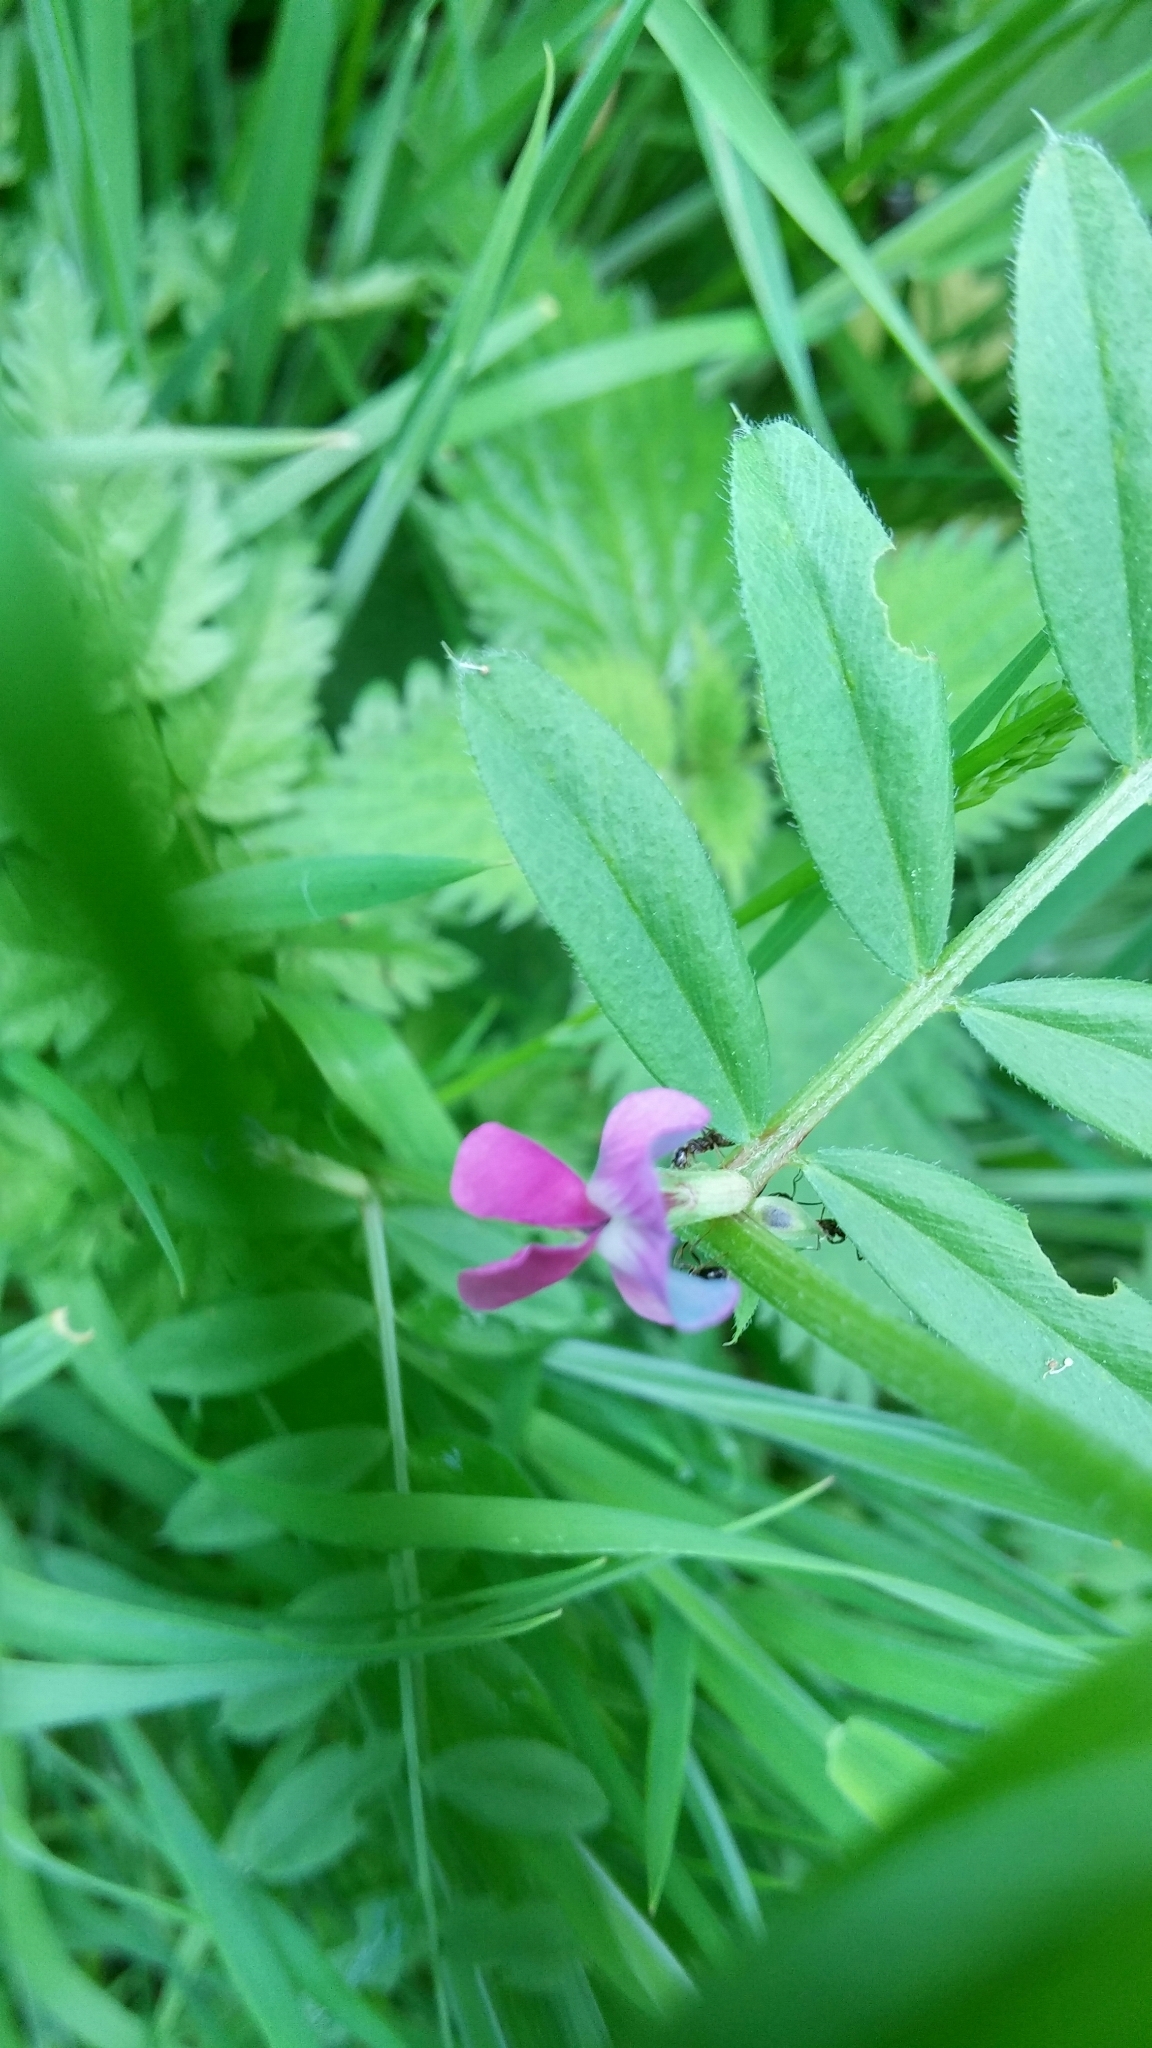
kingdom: Plantae
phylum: Tracheophyta
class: Magnoliopsida
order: Fabales
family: Fabaceae
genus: Vicia
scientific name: Vicia sativa
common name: Garden vetch
